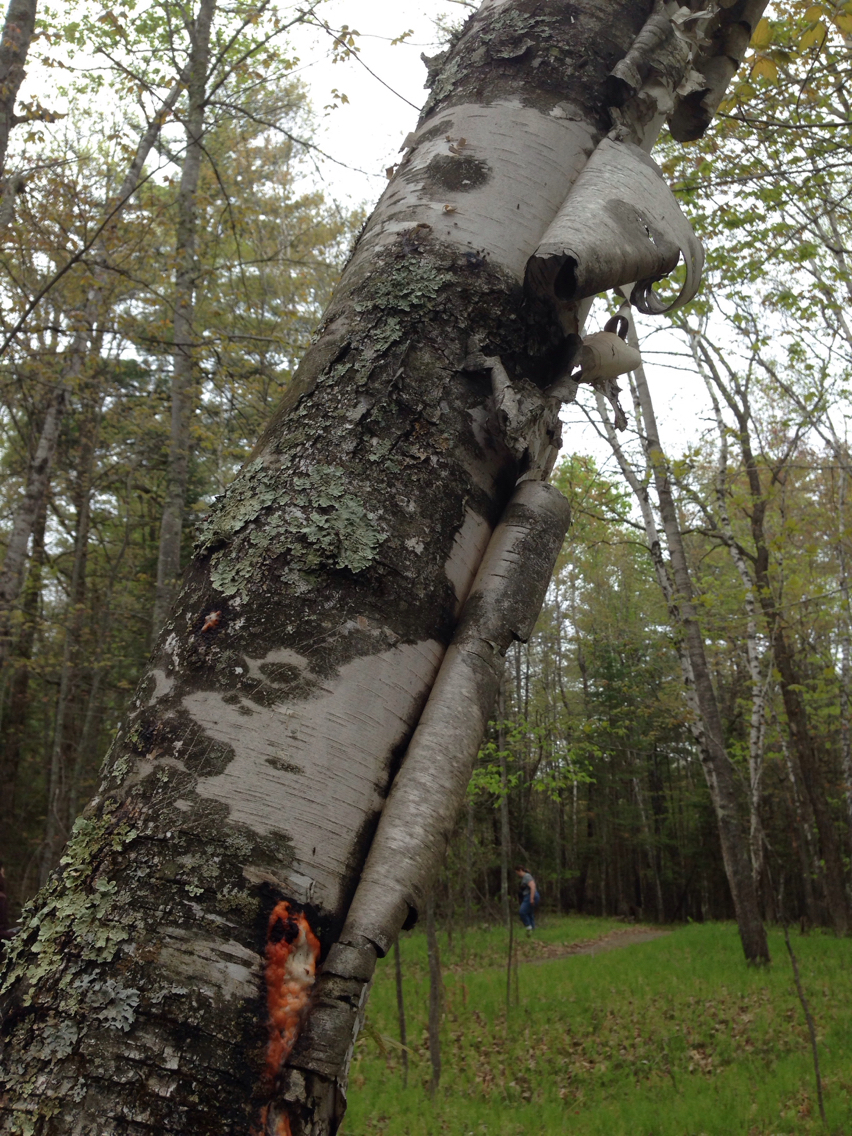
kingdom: Plantae
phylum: Tracheophyta
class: Magnoliopsida
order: Fagales
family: Betulaceae
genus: Betula
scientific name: Betula papyrifera
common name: Paper birch
